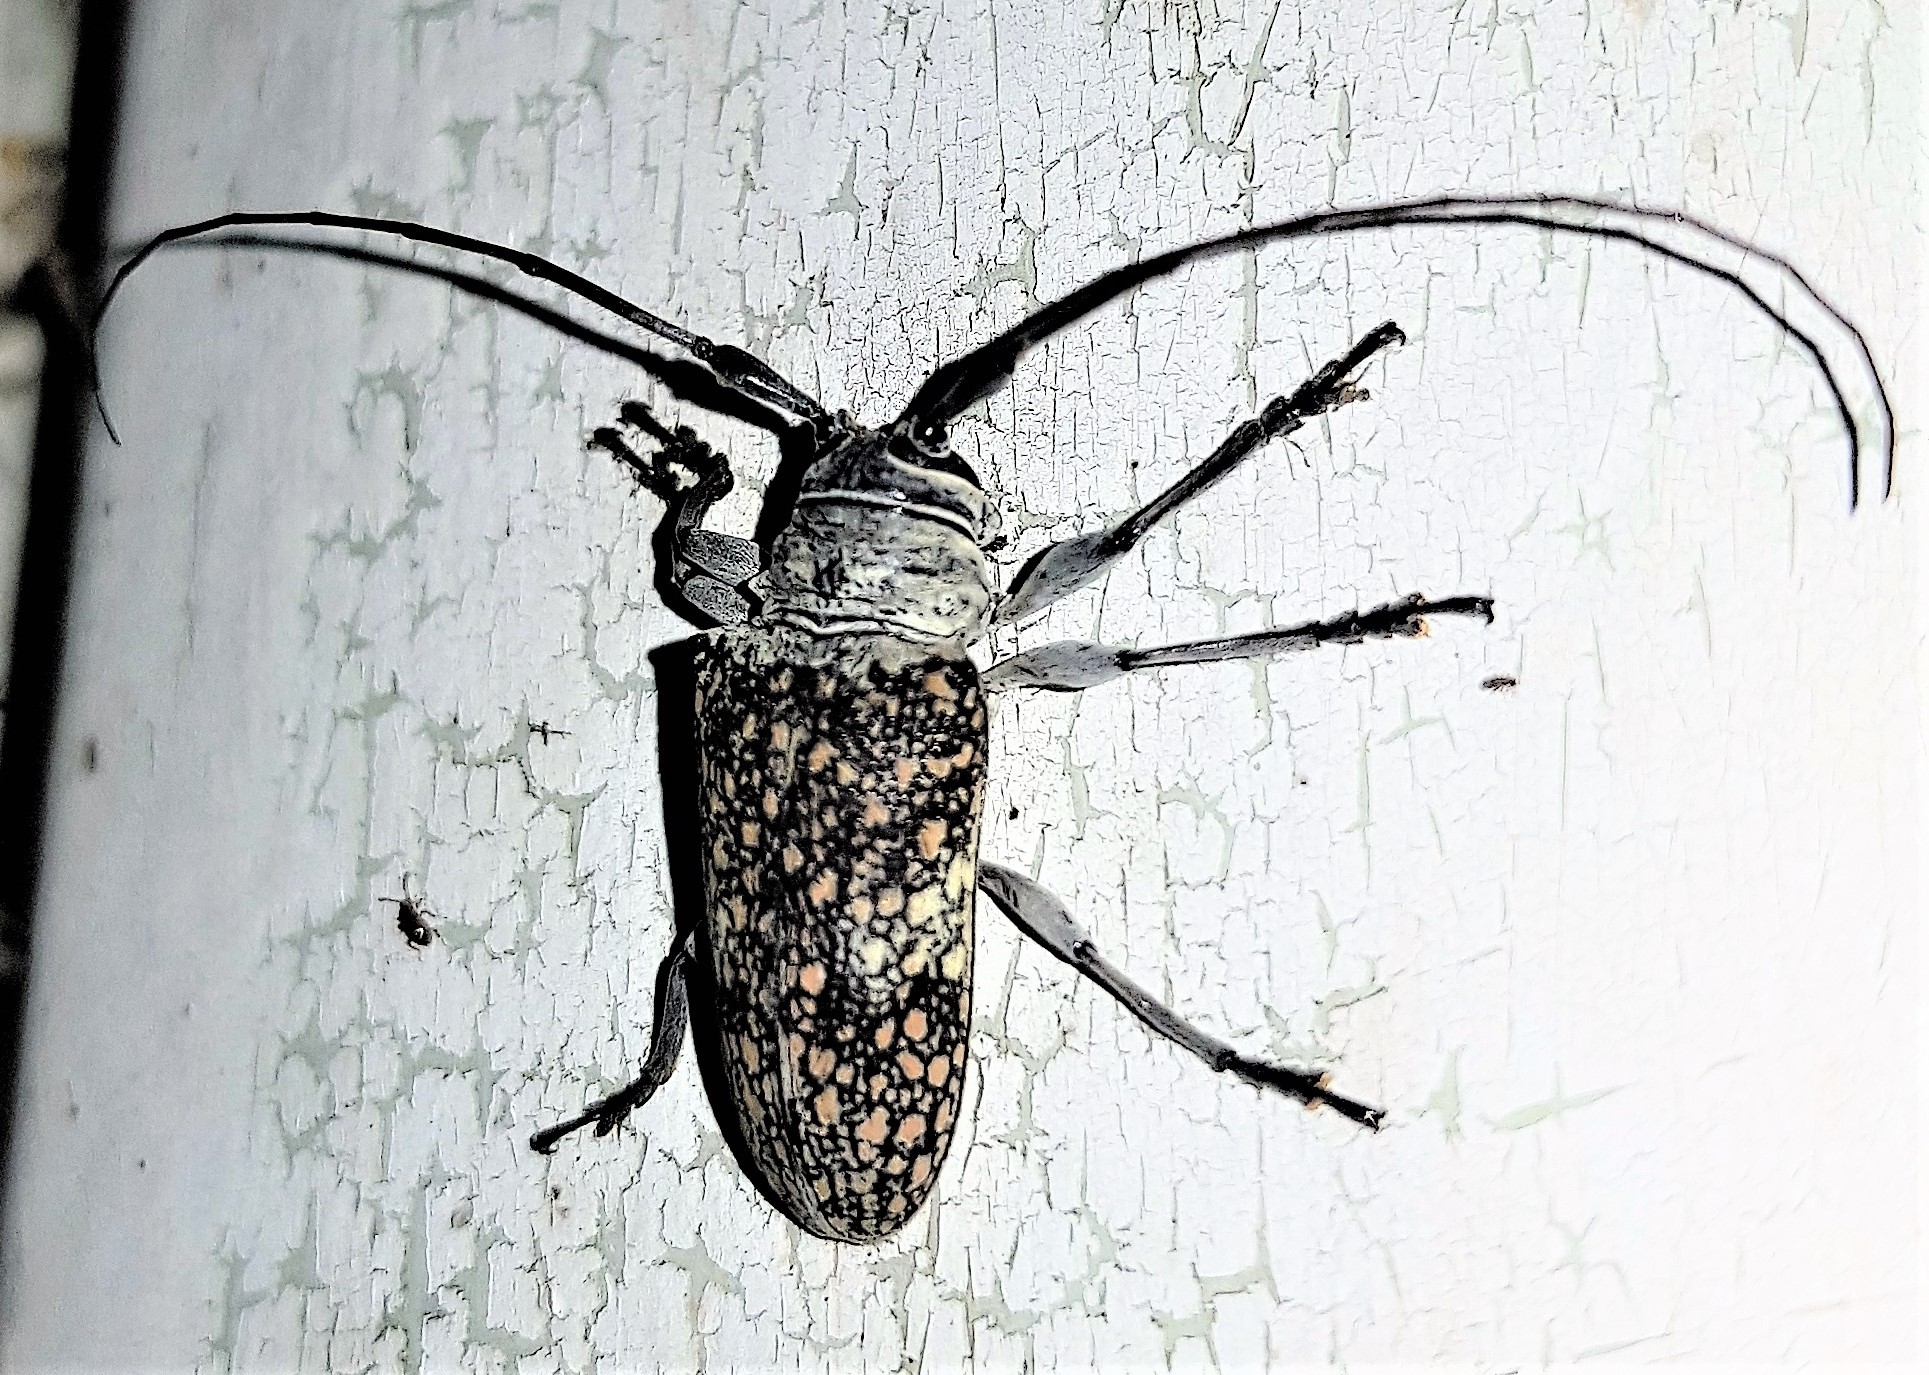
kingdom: Animalia
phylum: Arthropoda
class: Insecta
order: Coleoptera
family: Cerambycidae
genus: Lochmaeocles
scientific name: Lochmaeocles callidryas
